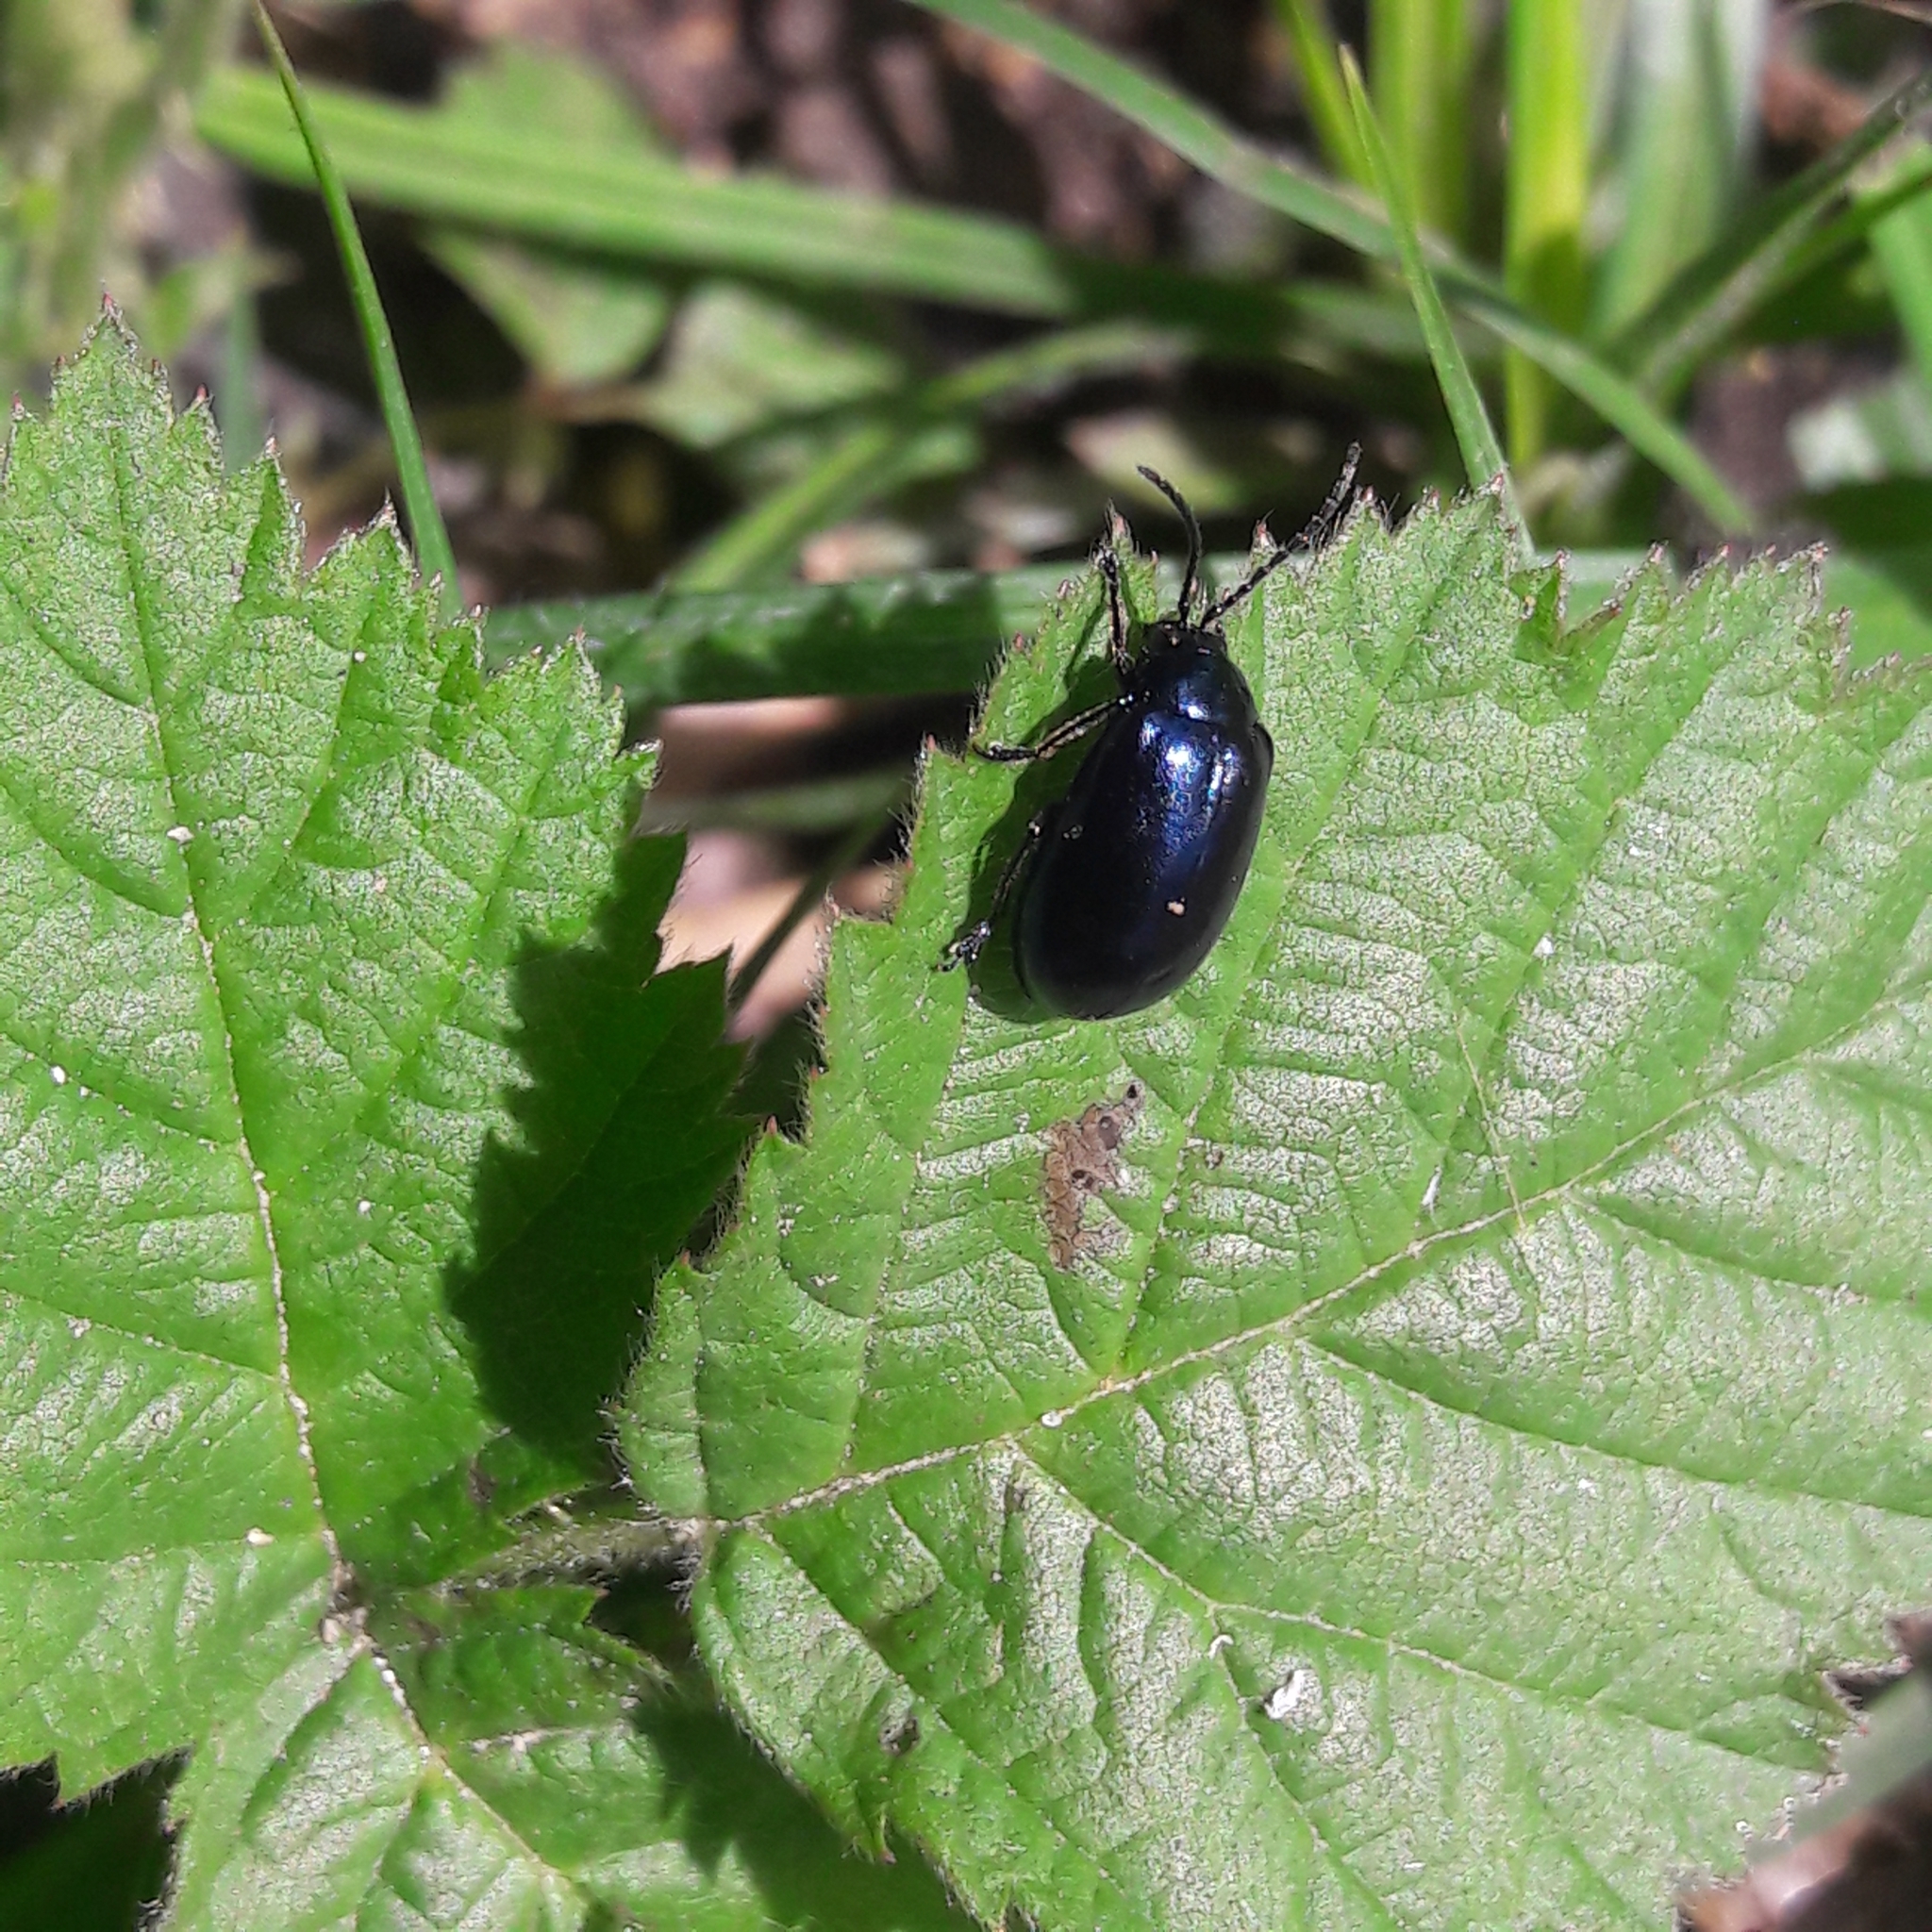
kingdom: Animalia
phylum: Arthropoda
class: Insecta
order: Coleoptera
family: Chrysomelidae
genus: Agelastica
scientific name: Agelastica alni
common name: Alder leaf beetle
